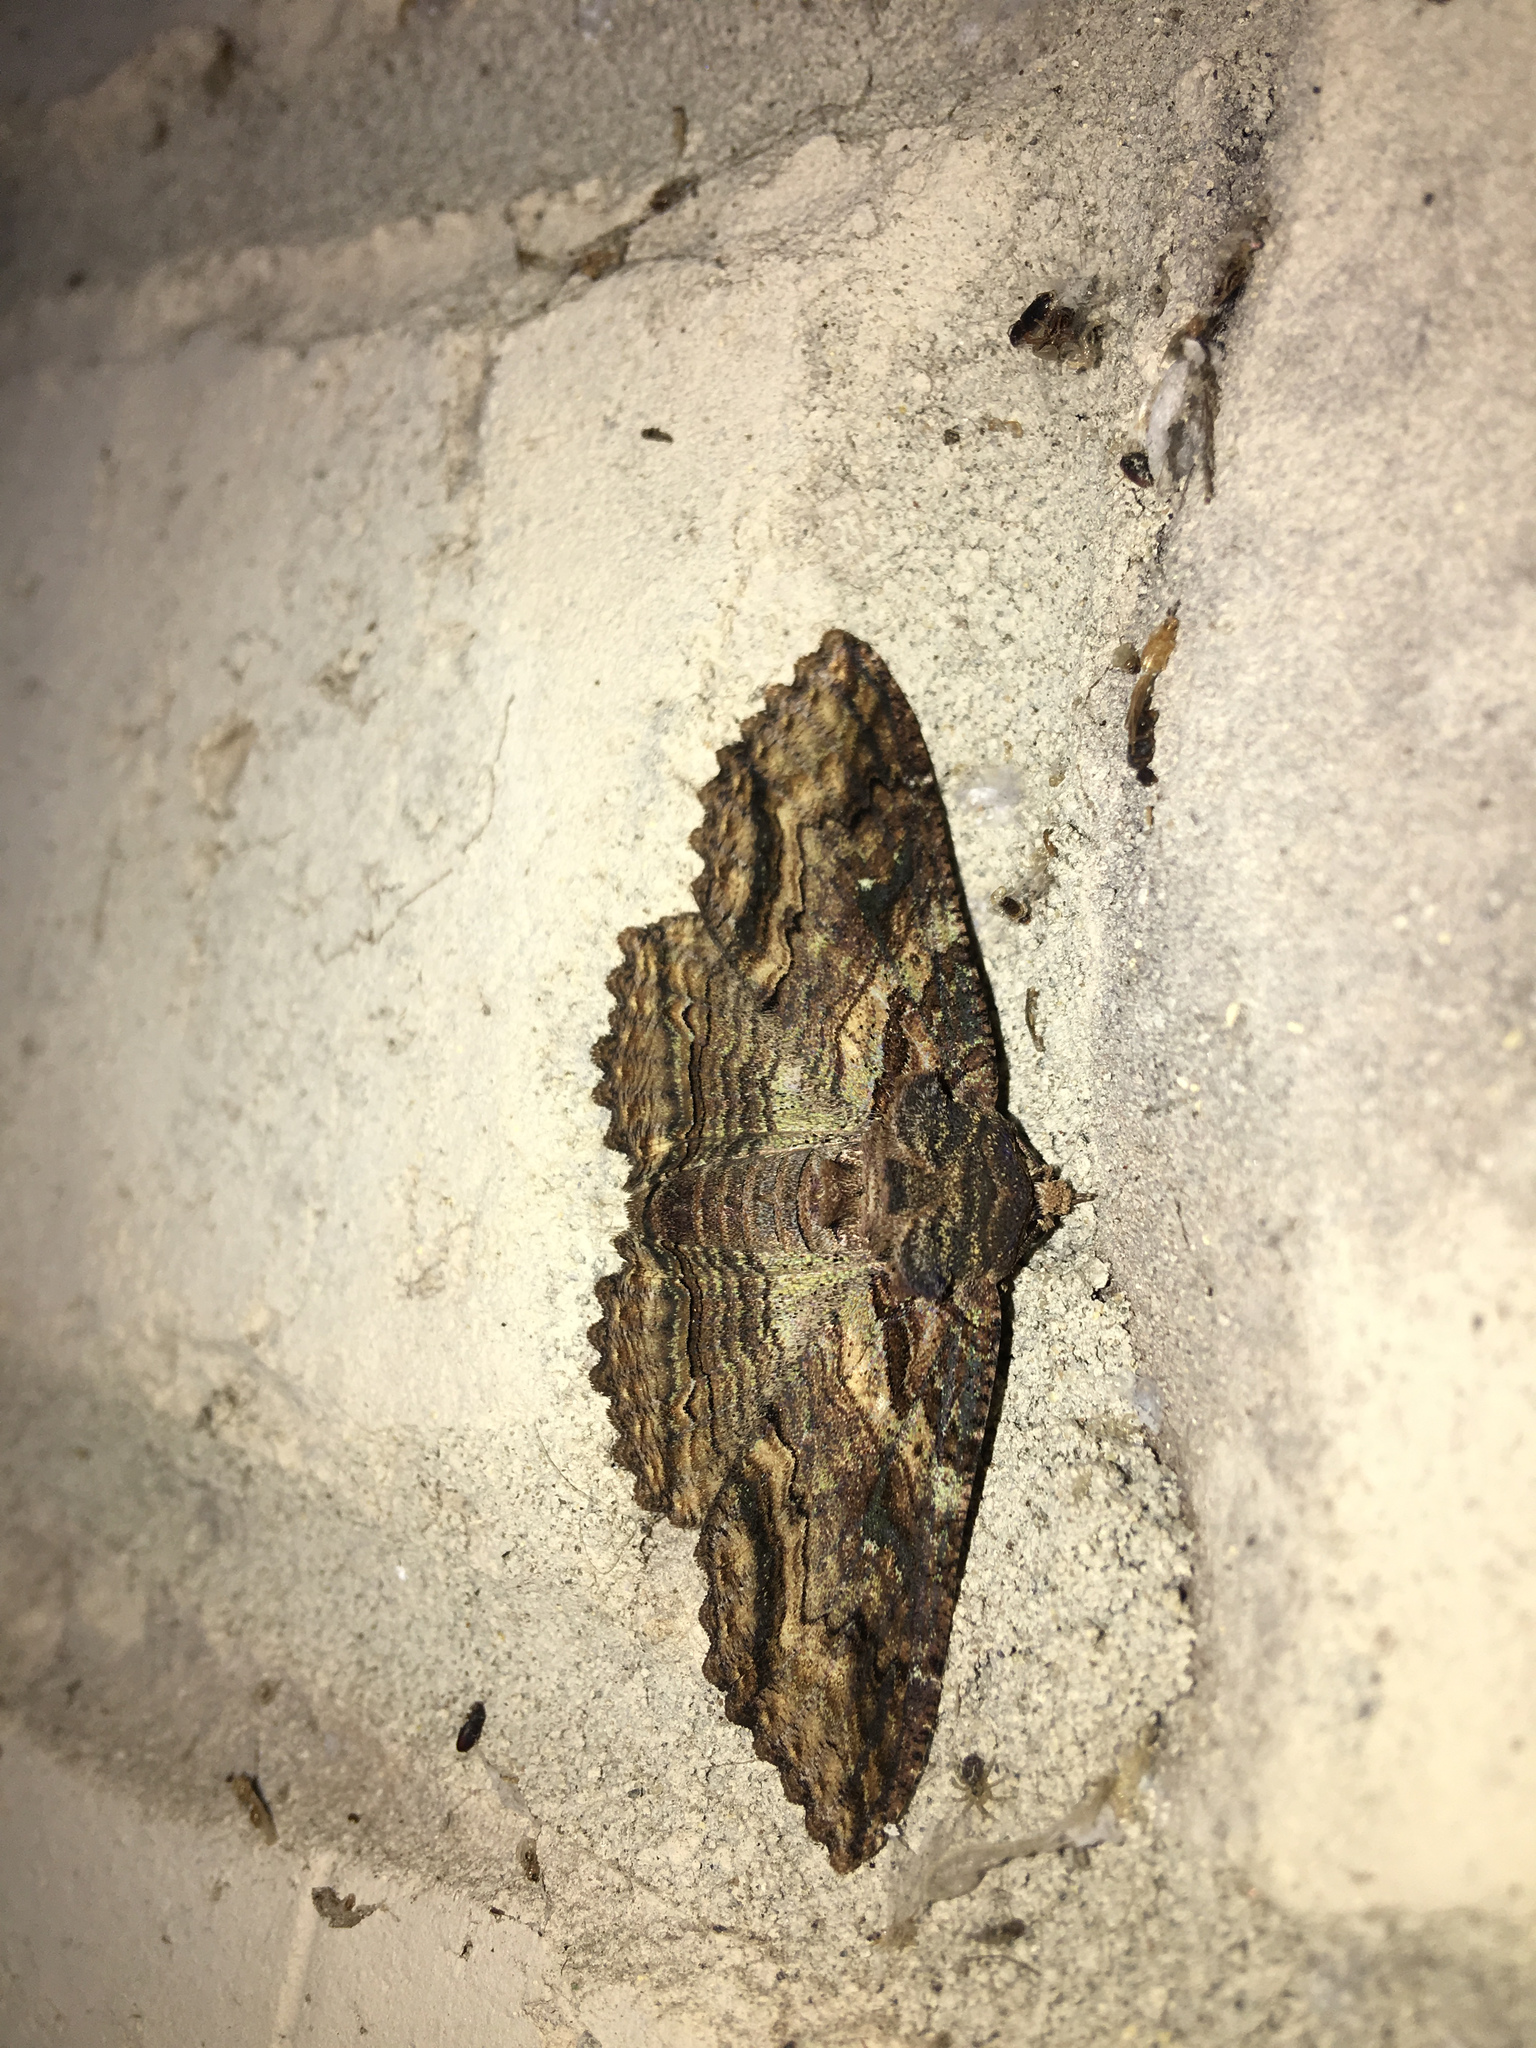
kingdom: Animalia
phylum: Arthropoda
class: Insecta
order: Lepidoptera
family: Erebidae
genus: Zale
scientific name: Zale lunata
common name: Lunate zale moth
